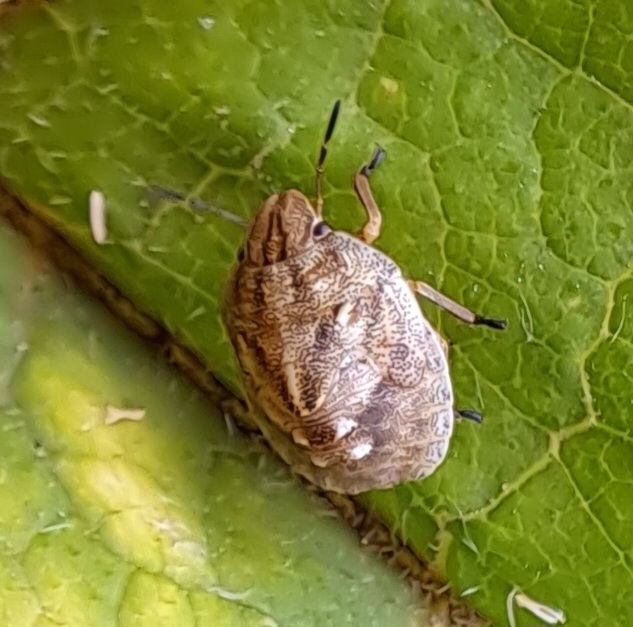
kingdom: Animalia
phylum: Arthropoda
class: Insecta
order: Hemiptera
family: Scutelleridae
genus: Eurygaster
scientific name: Eurygaster austriaca
